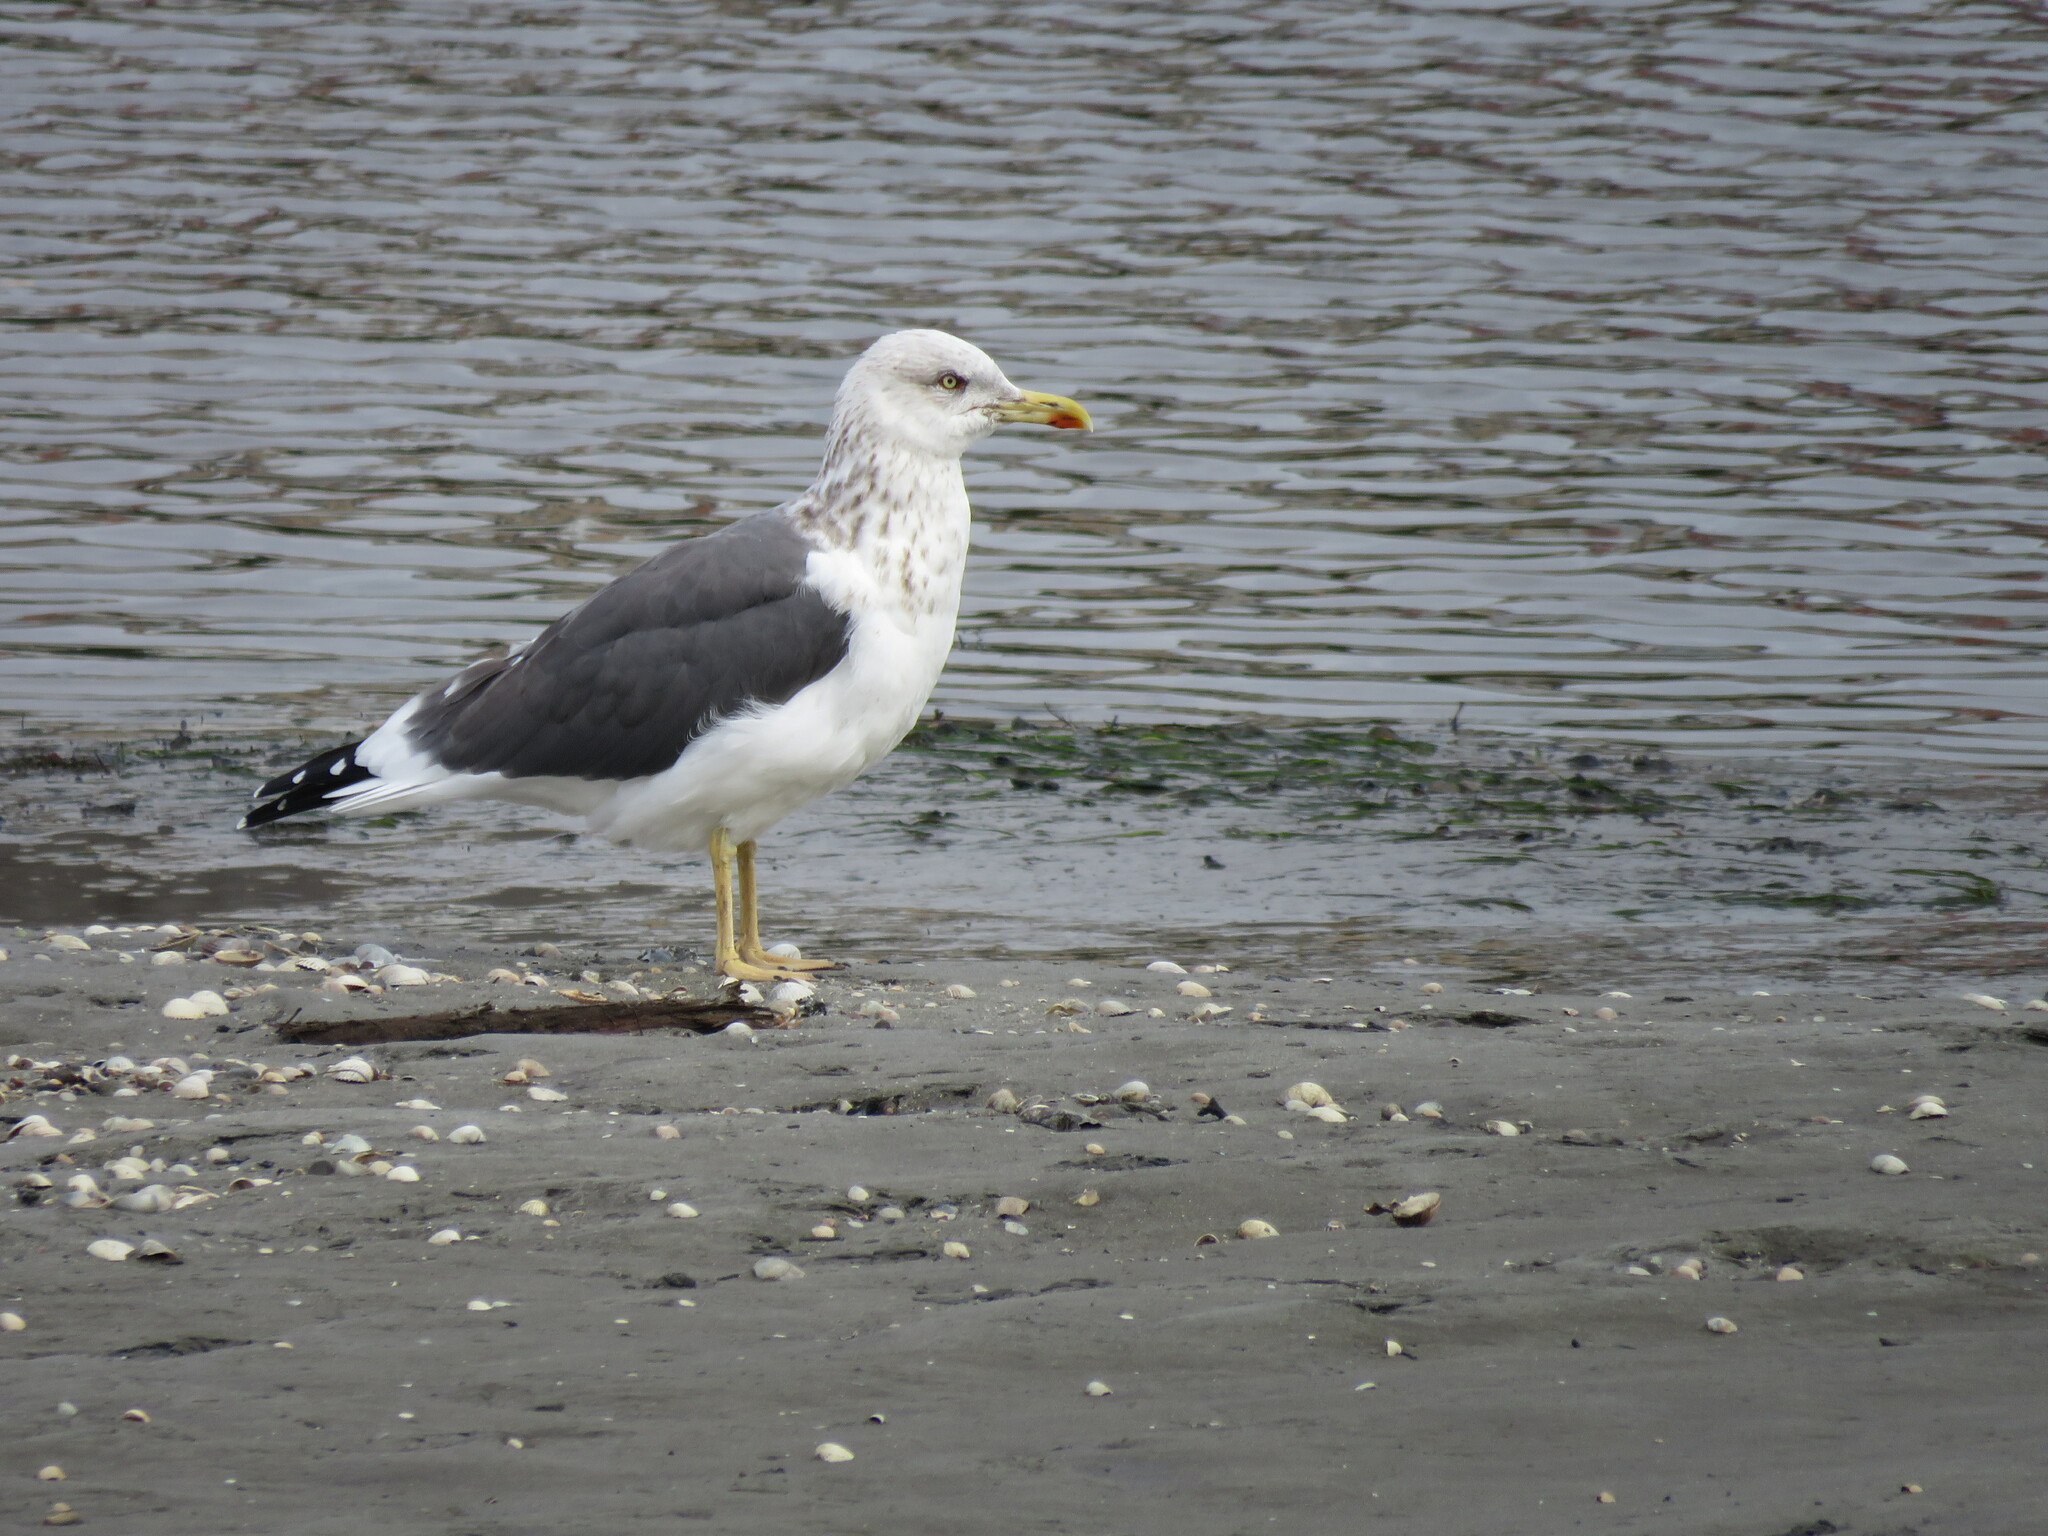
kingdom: Animalia
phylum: Chordata
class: Aves
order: Charadriiformes
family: Laridae
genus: Larus
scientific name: Larus fuscus
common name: Lesser black-backed gull
